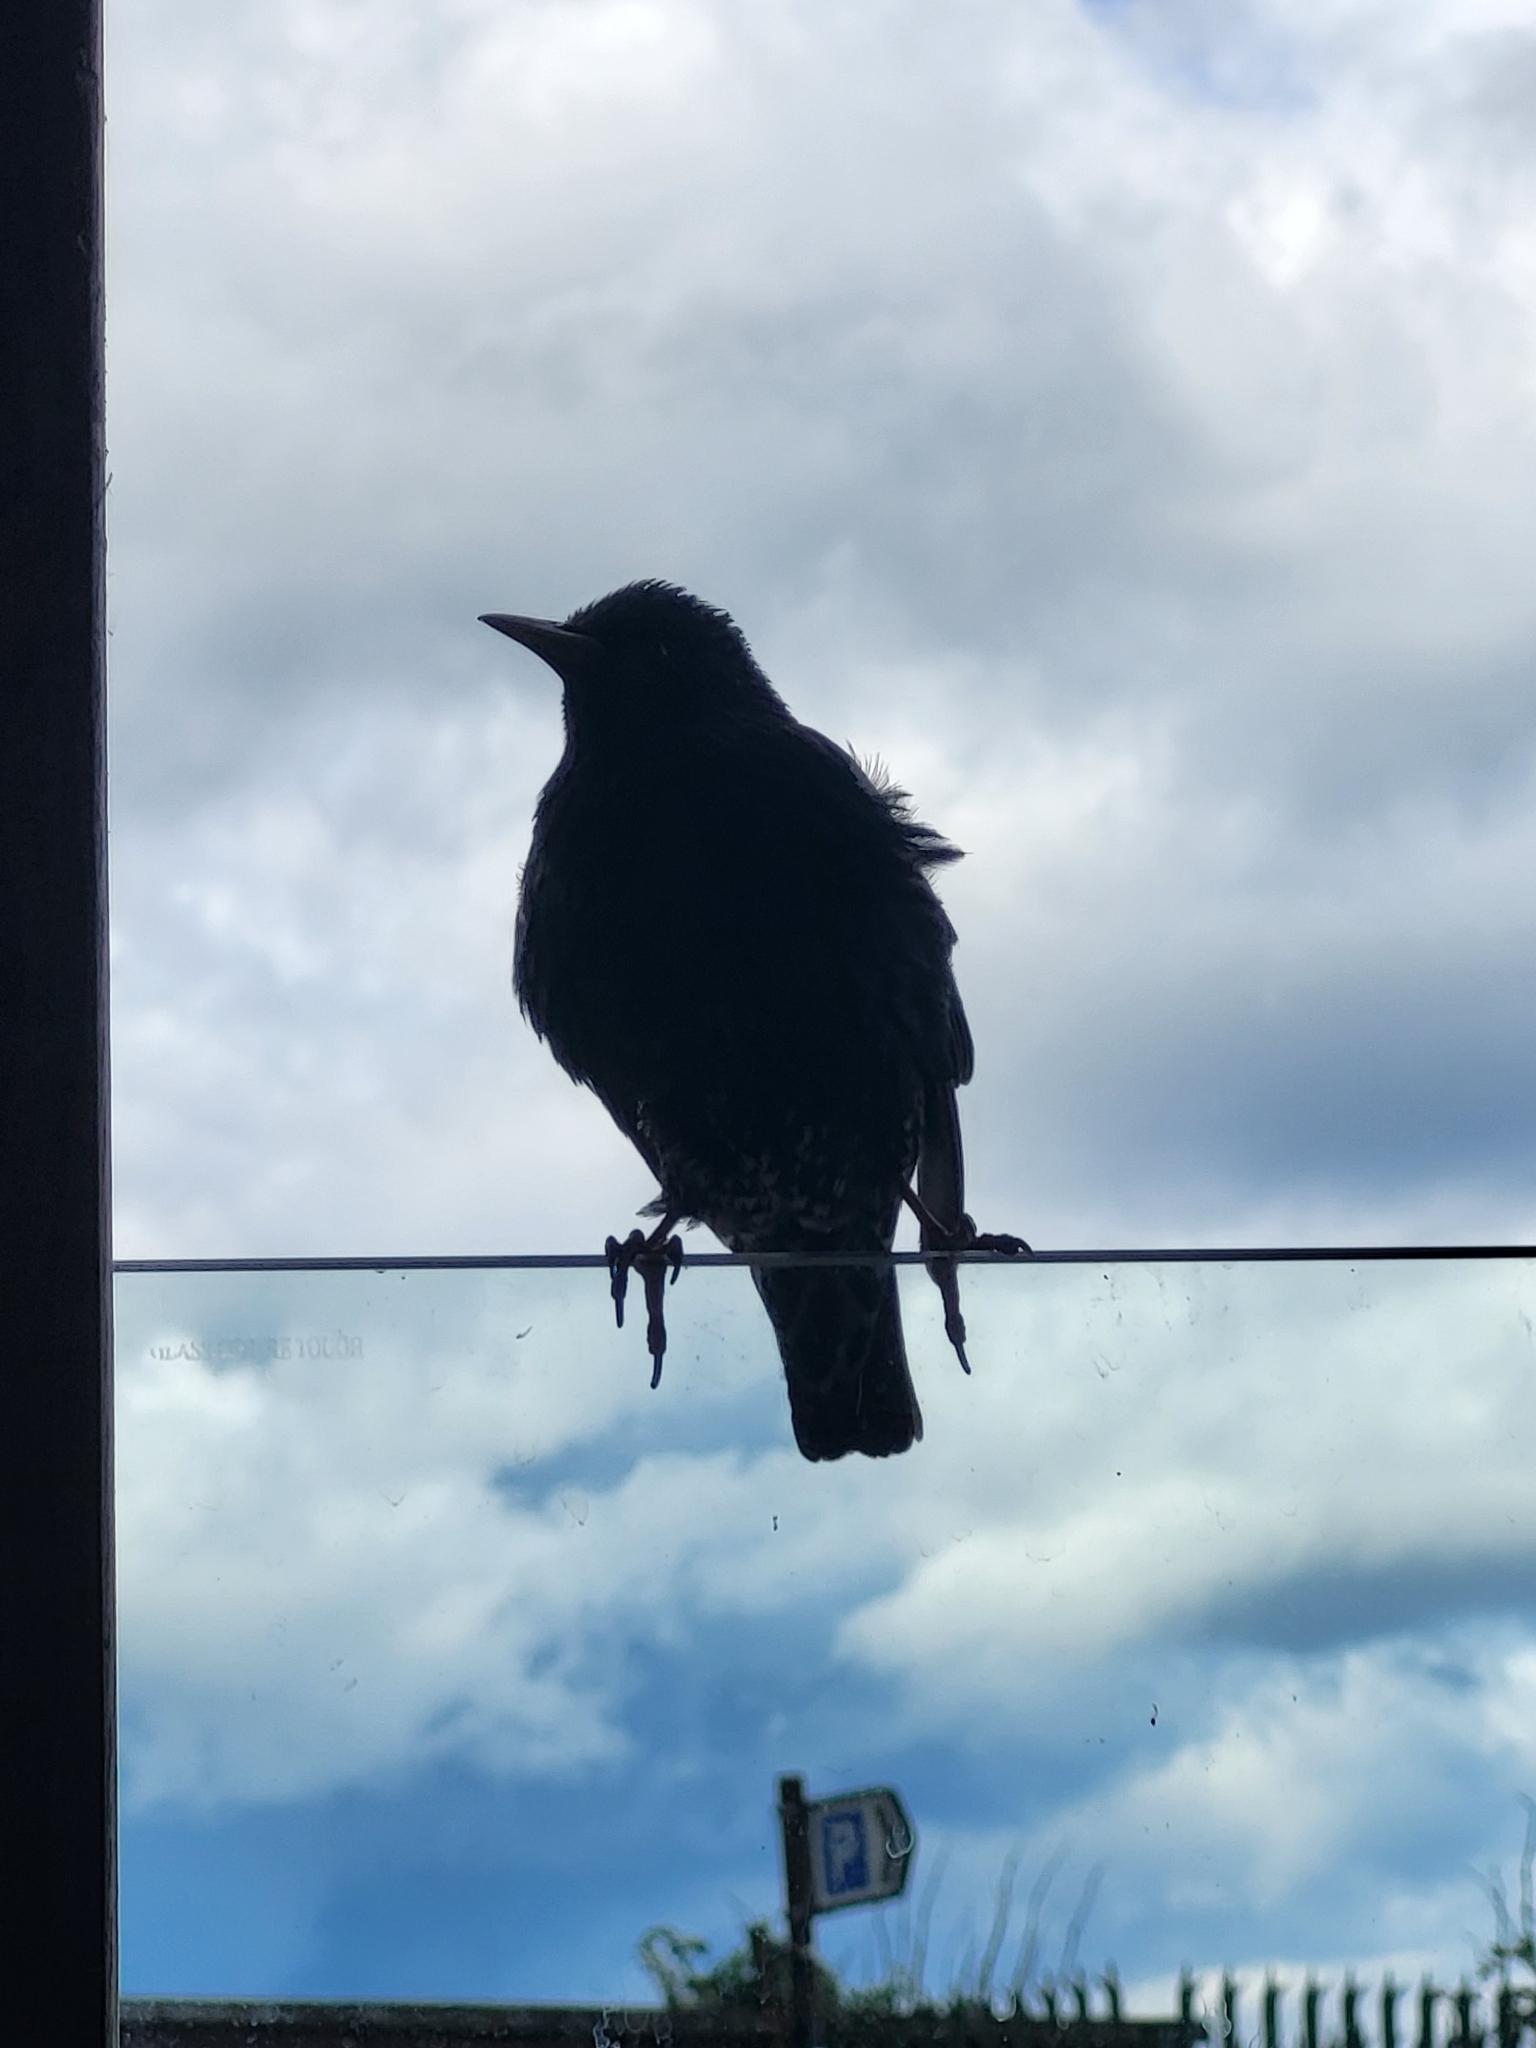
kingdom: Animalia
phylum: Chordata
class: Aves
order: Passeriformes
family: Sturnidae
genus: Sturnus
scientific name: Sturnus vulgaris
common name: Common starling
